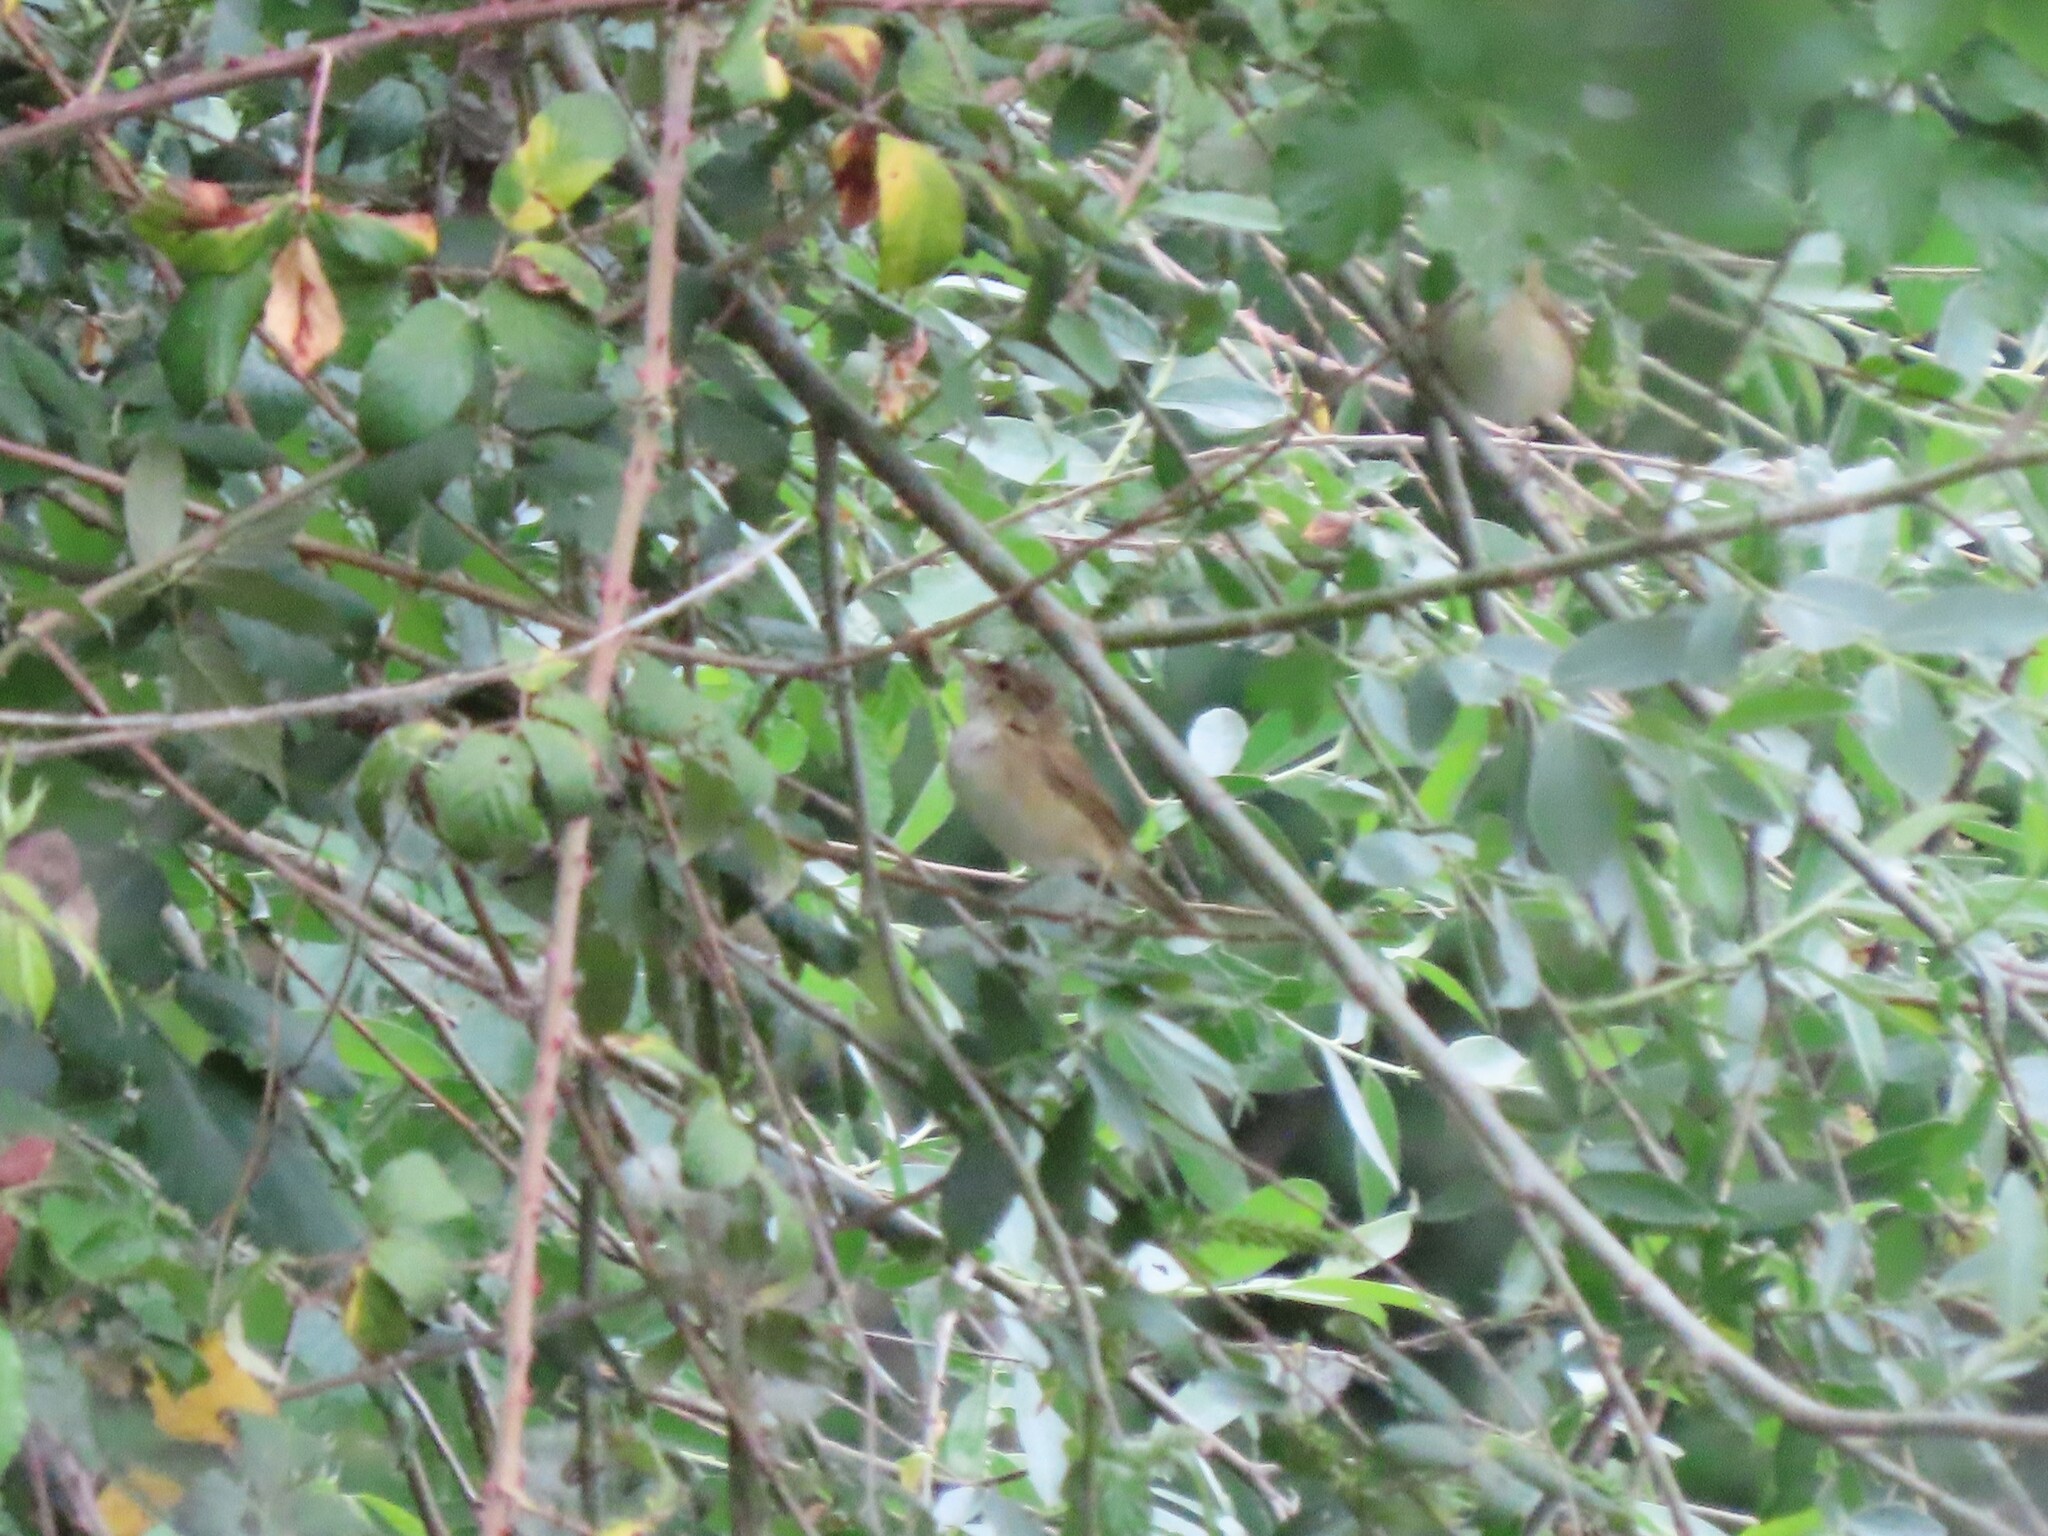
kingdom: Animalia
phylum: Chordata
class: Aves
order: Passeriformes
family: Acrocephalidae
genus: Acrocephalus
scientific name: Acrocephalus scirpaceus
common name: Eurasian reed warbler
